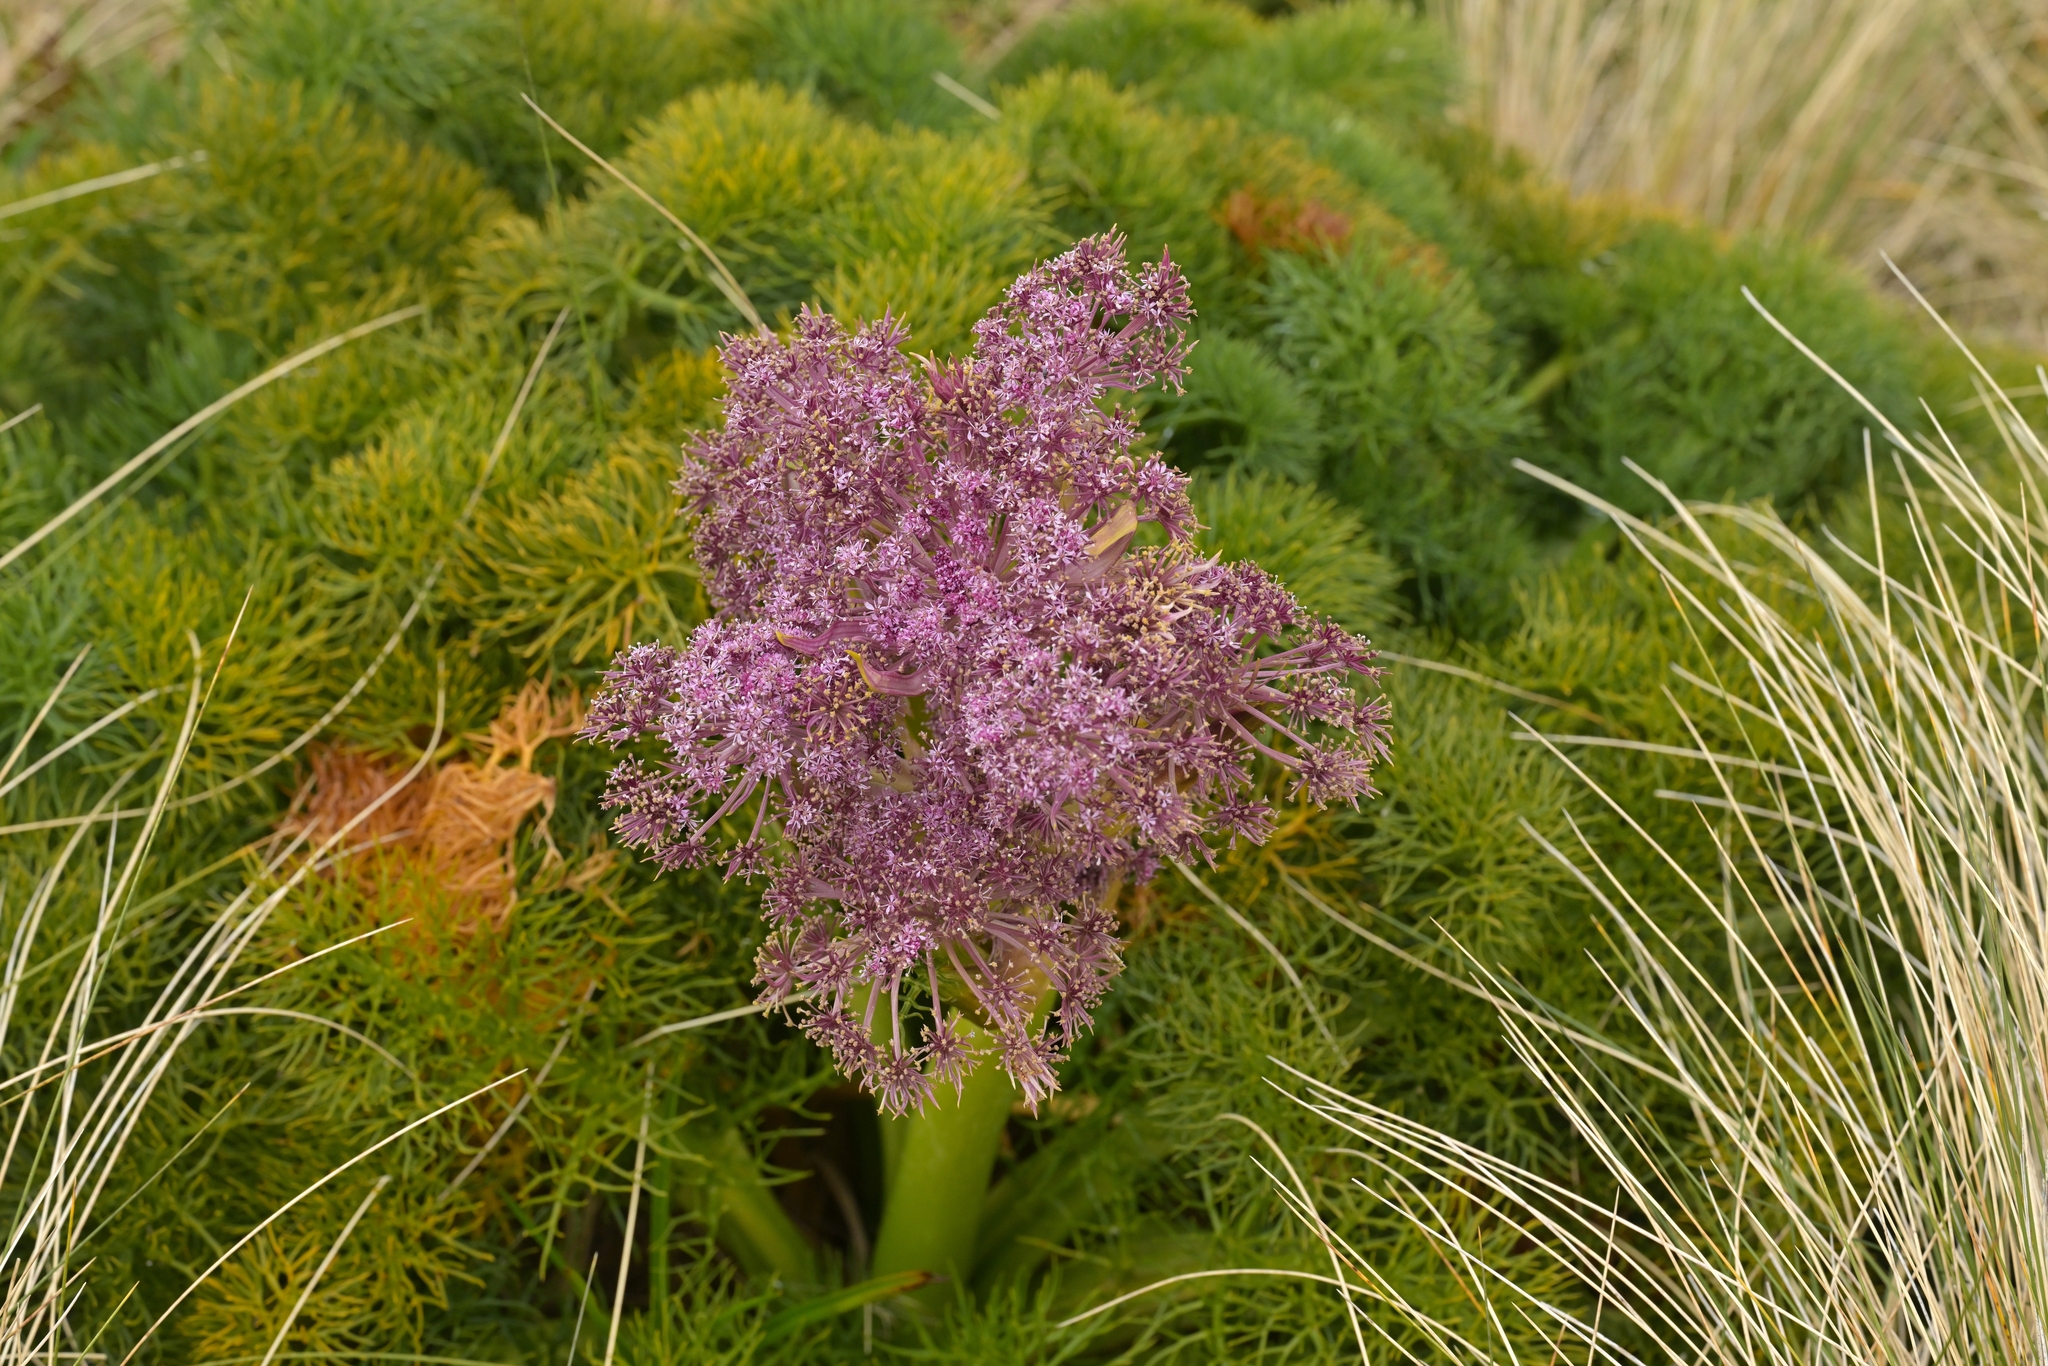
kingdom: Plantae
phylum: Tracheophyta
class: Magnoliopsida
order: Apiales
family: Apiaceae
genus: Anisotome
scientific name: Anisotome antipoda
